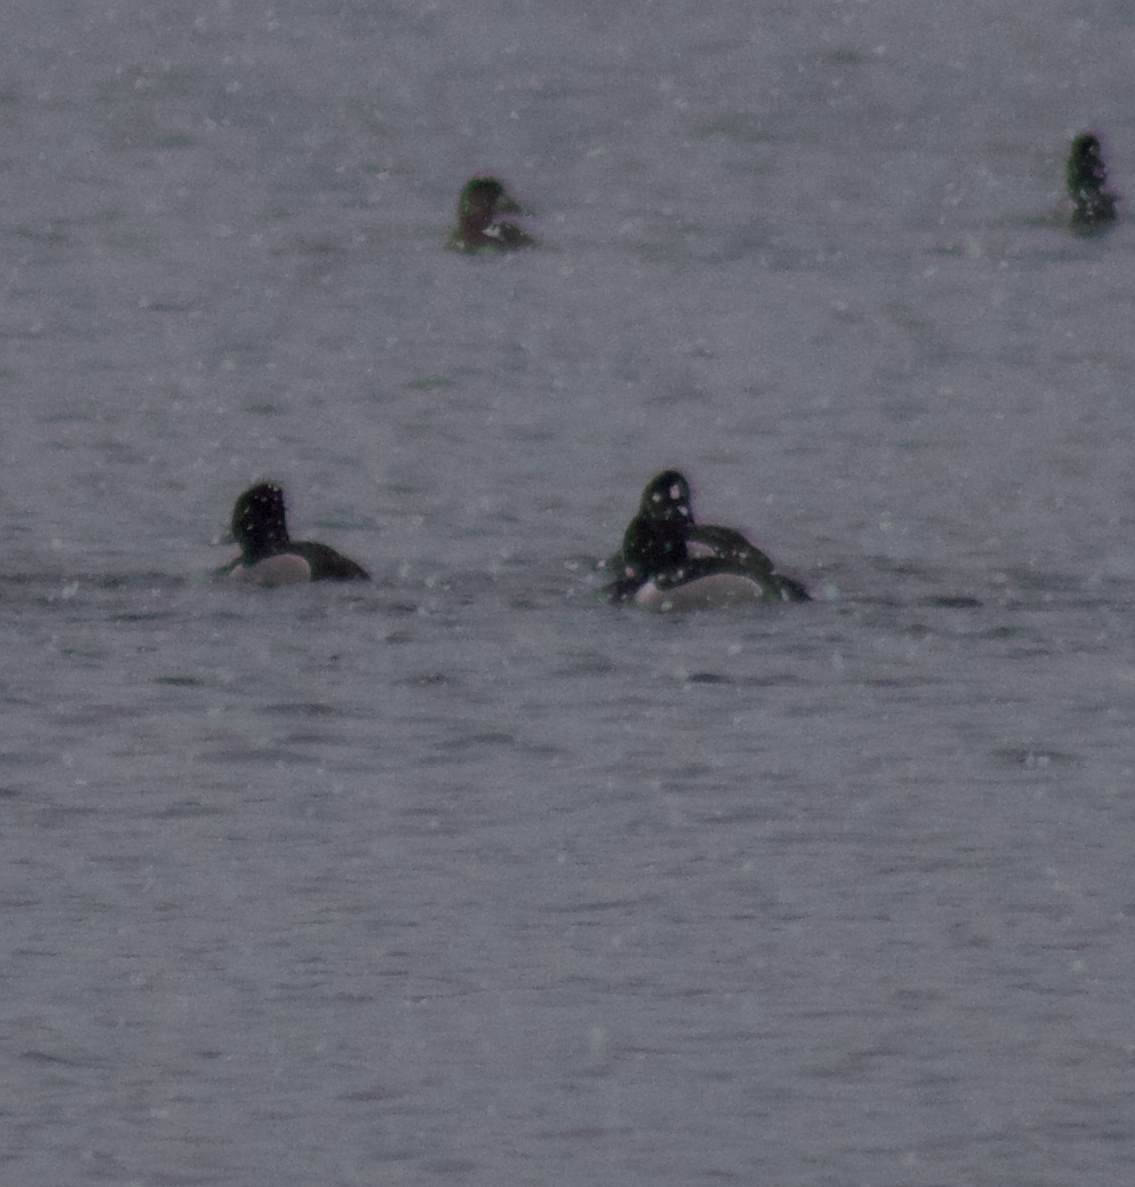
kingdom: Animalia
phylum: Chordata
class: Aves
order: Anseriformes
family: Anatidae
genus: Aythya
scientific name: Aythya collaris
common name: Ring-necked duck
